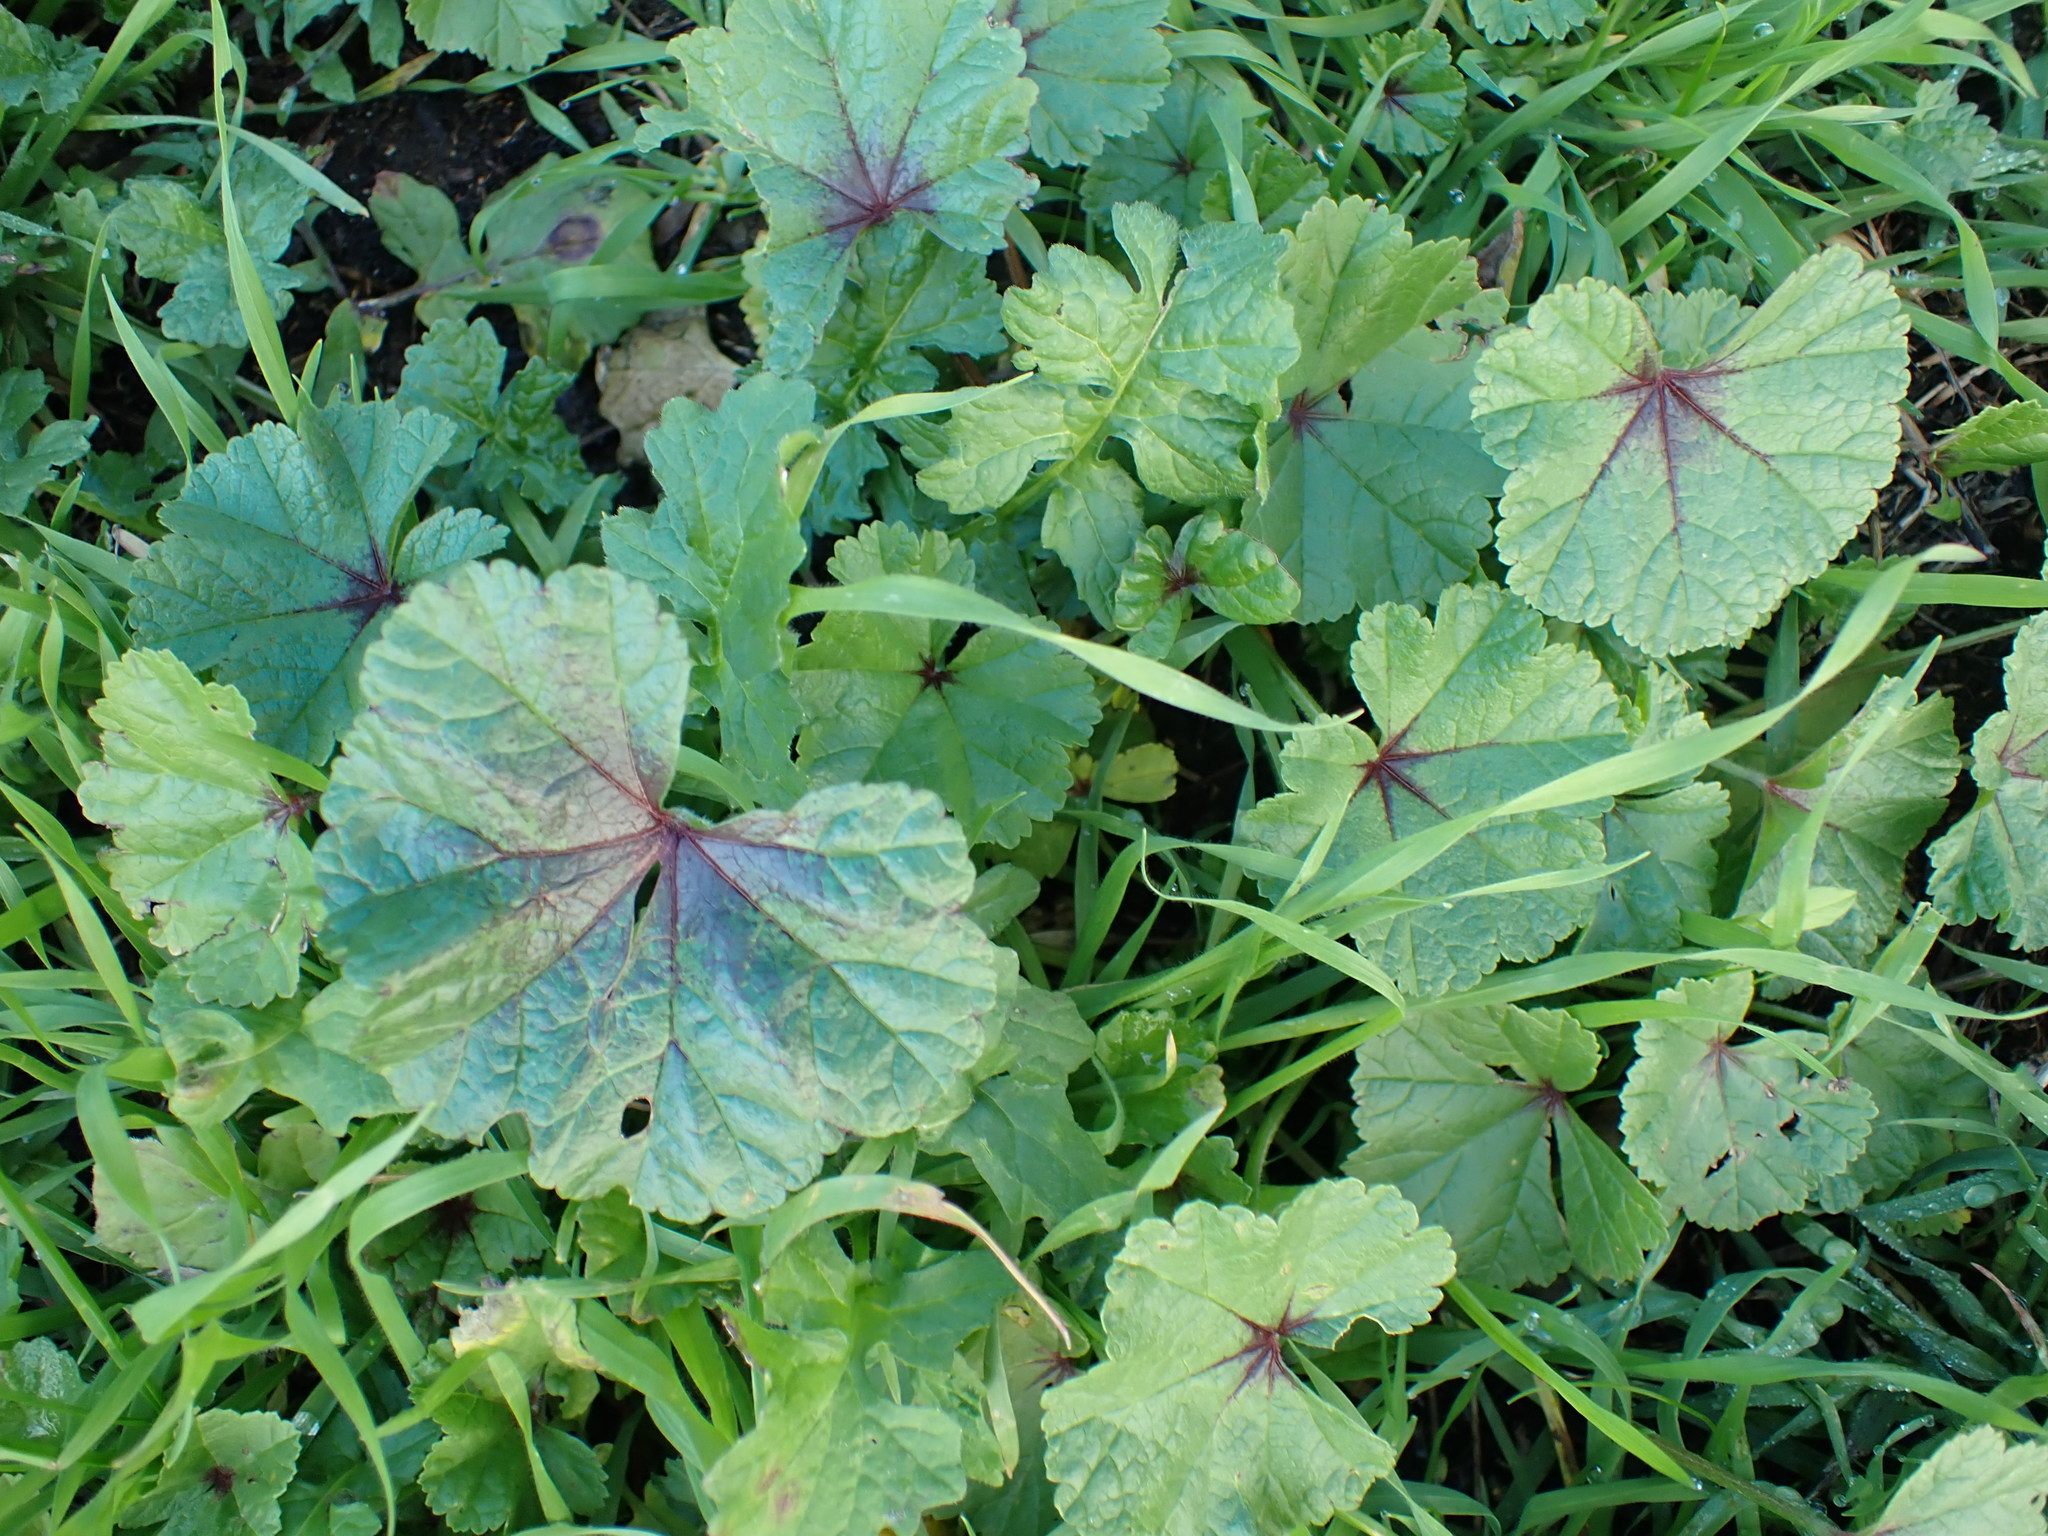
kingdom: Plantae
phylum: Tracheophyta
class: Magnoliopsida
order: Malvales
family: Malvaceae
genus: Malva
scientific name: Malva sylvestris
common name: Common mallow
